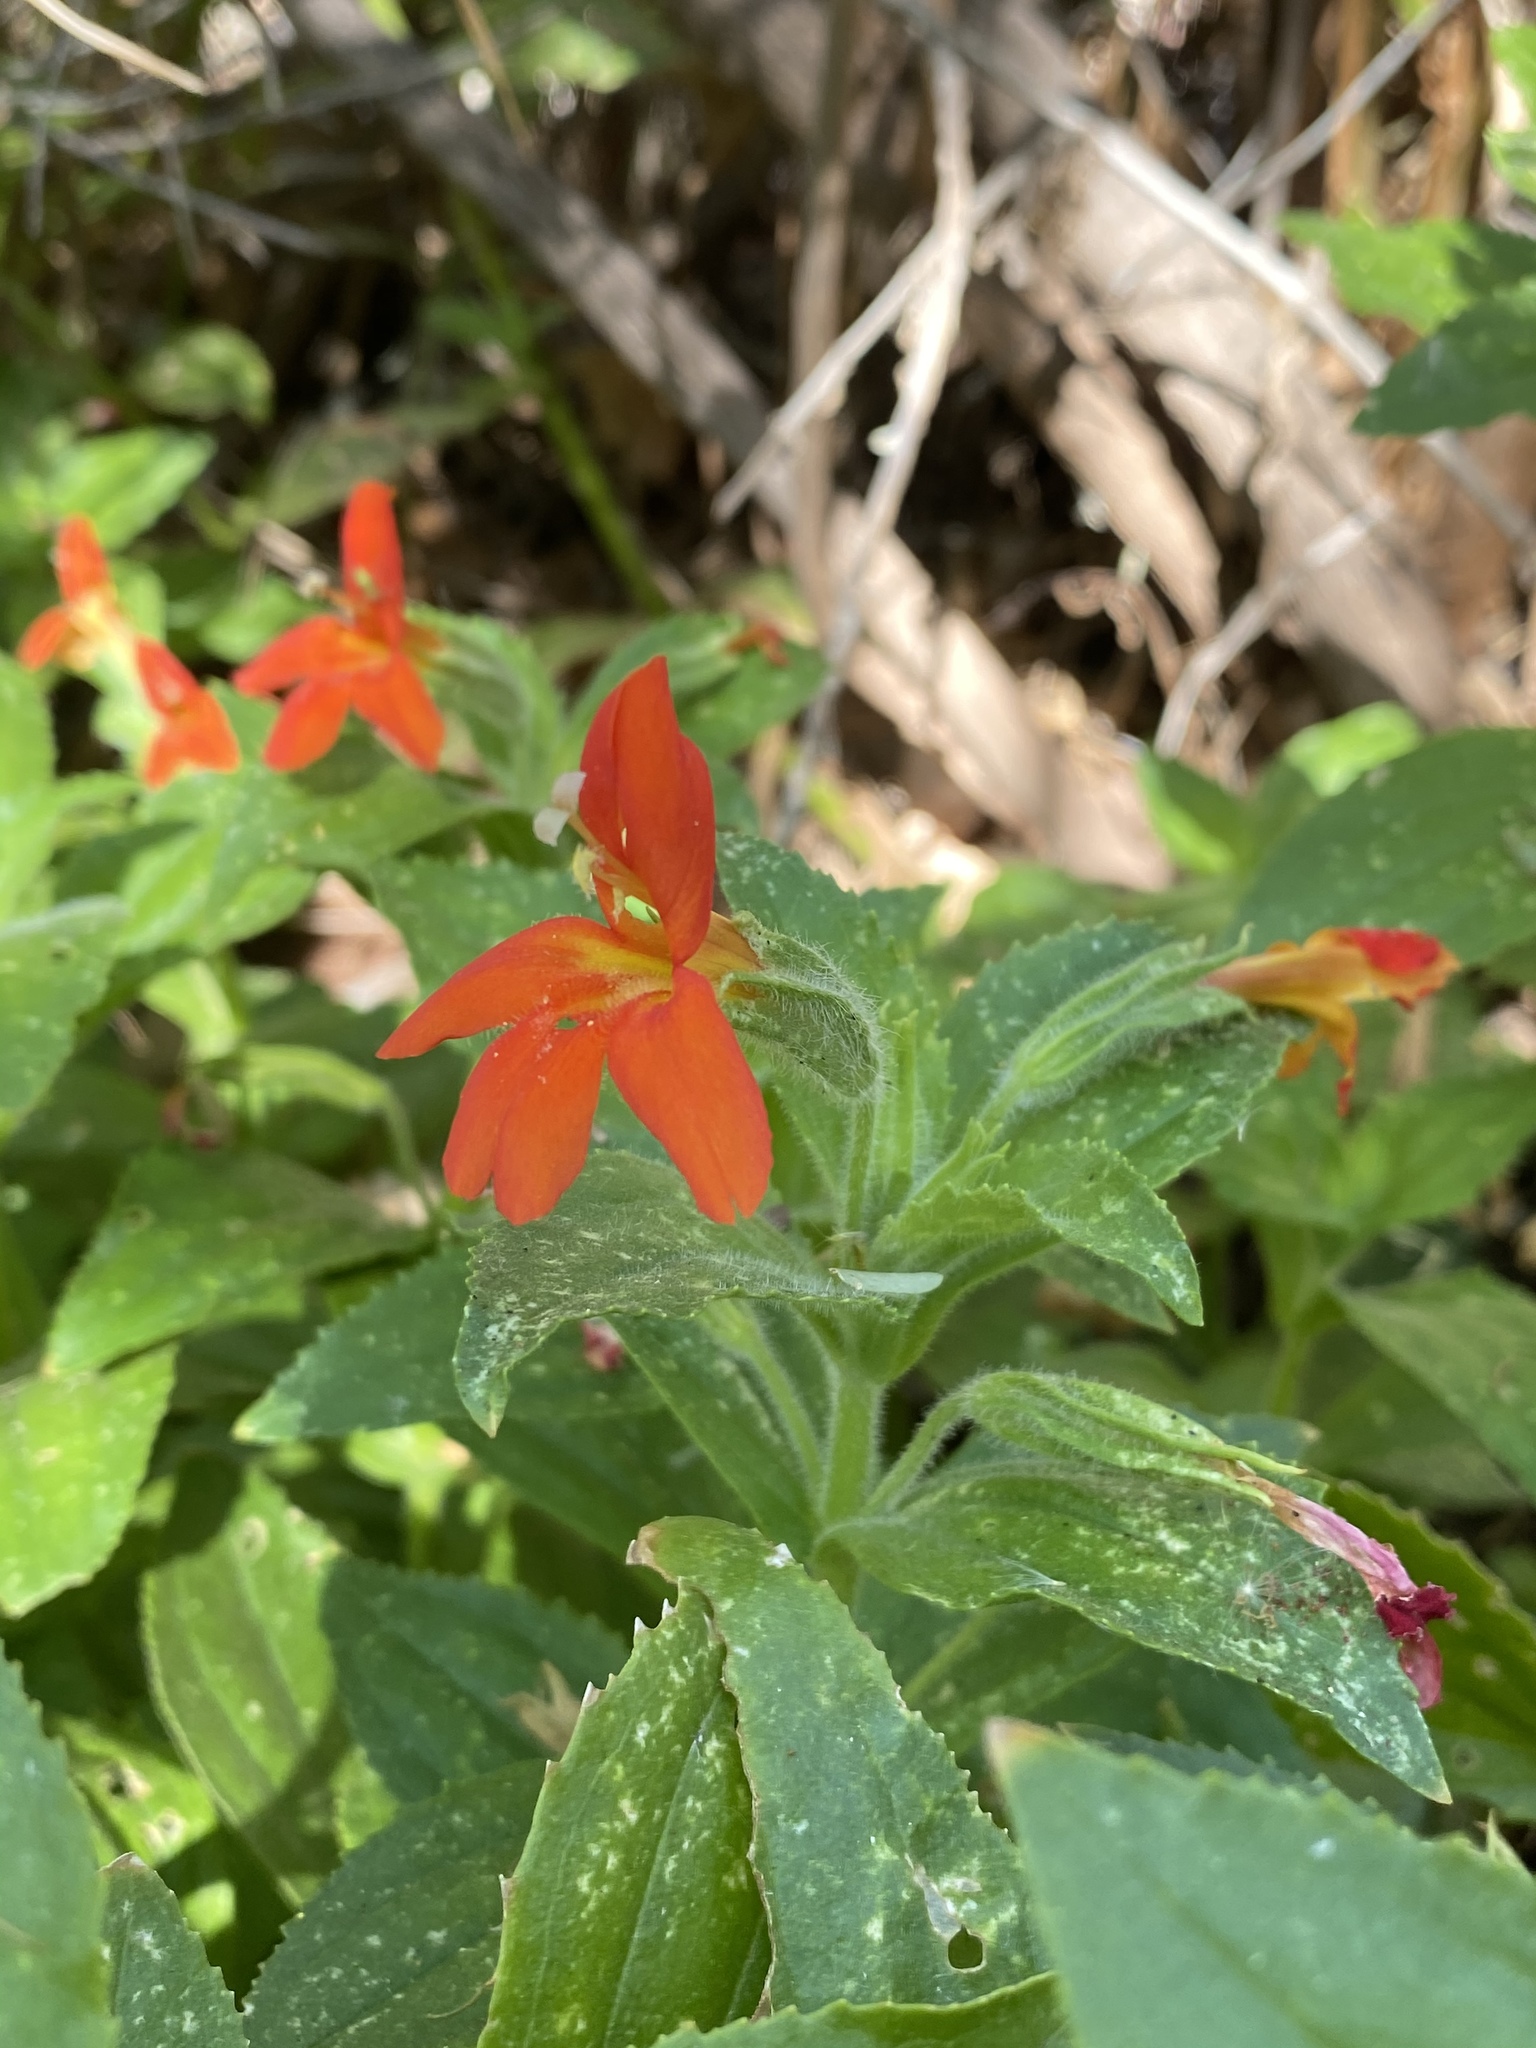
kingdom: Plantae
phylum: Tracheophyta
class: Magnoliopsida
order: Lamiales
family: Phrymaceae
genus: Erythranthe
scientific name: Erythranthe verbenacea
